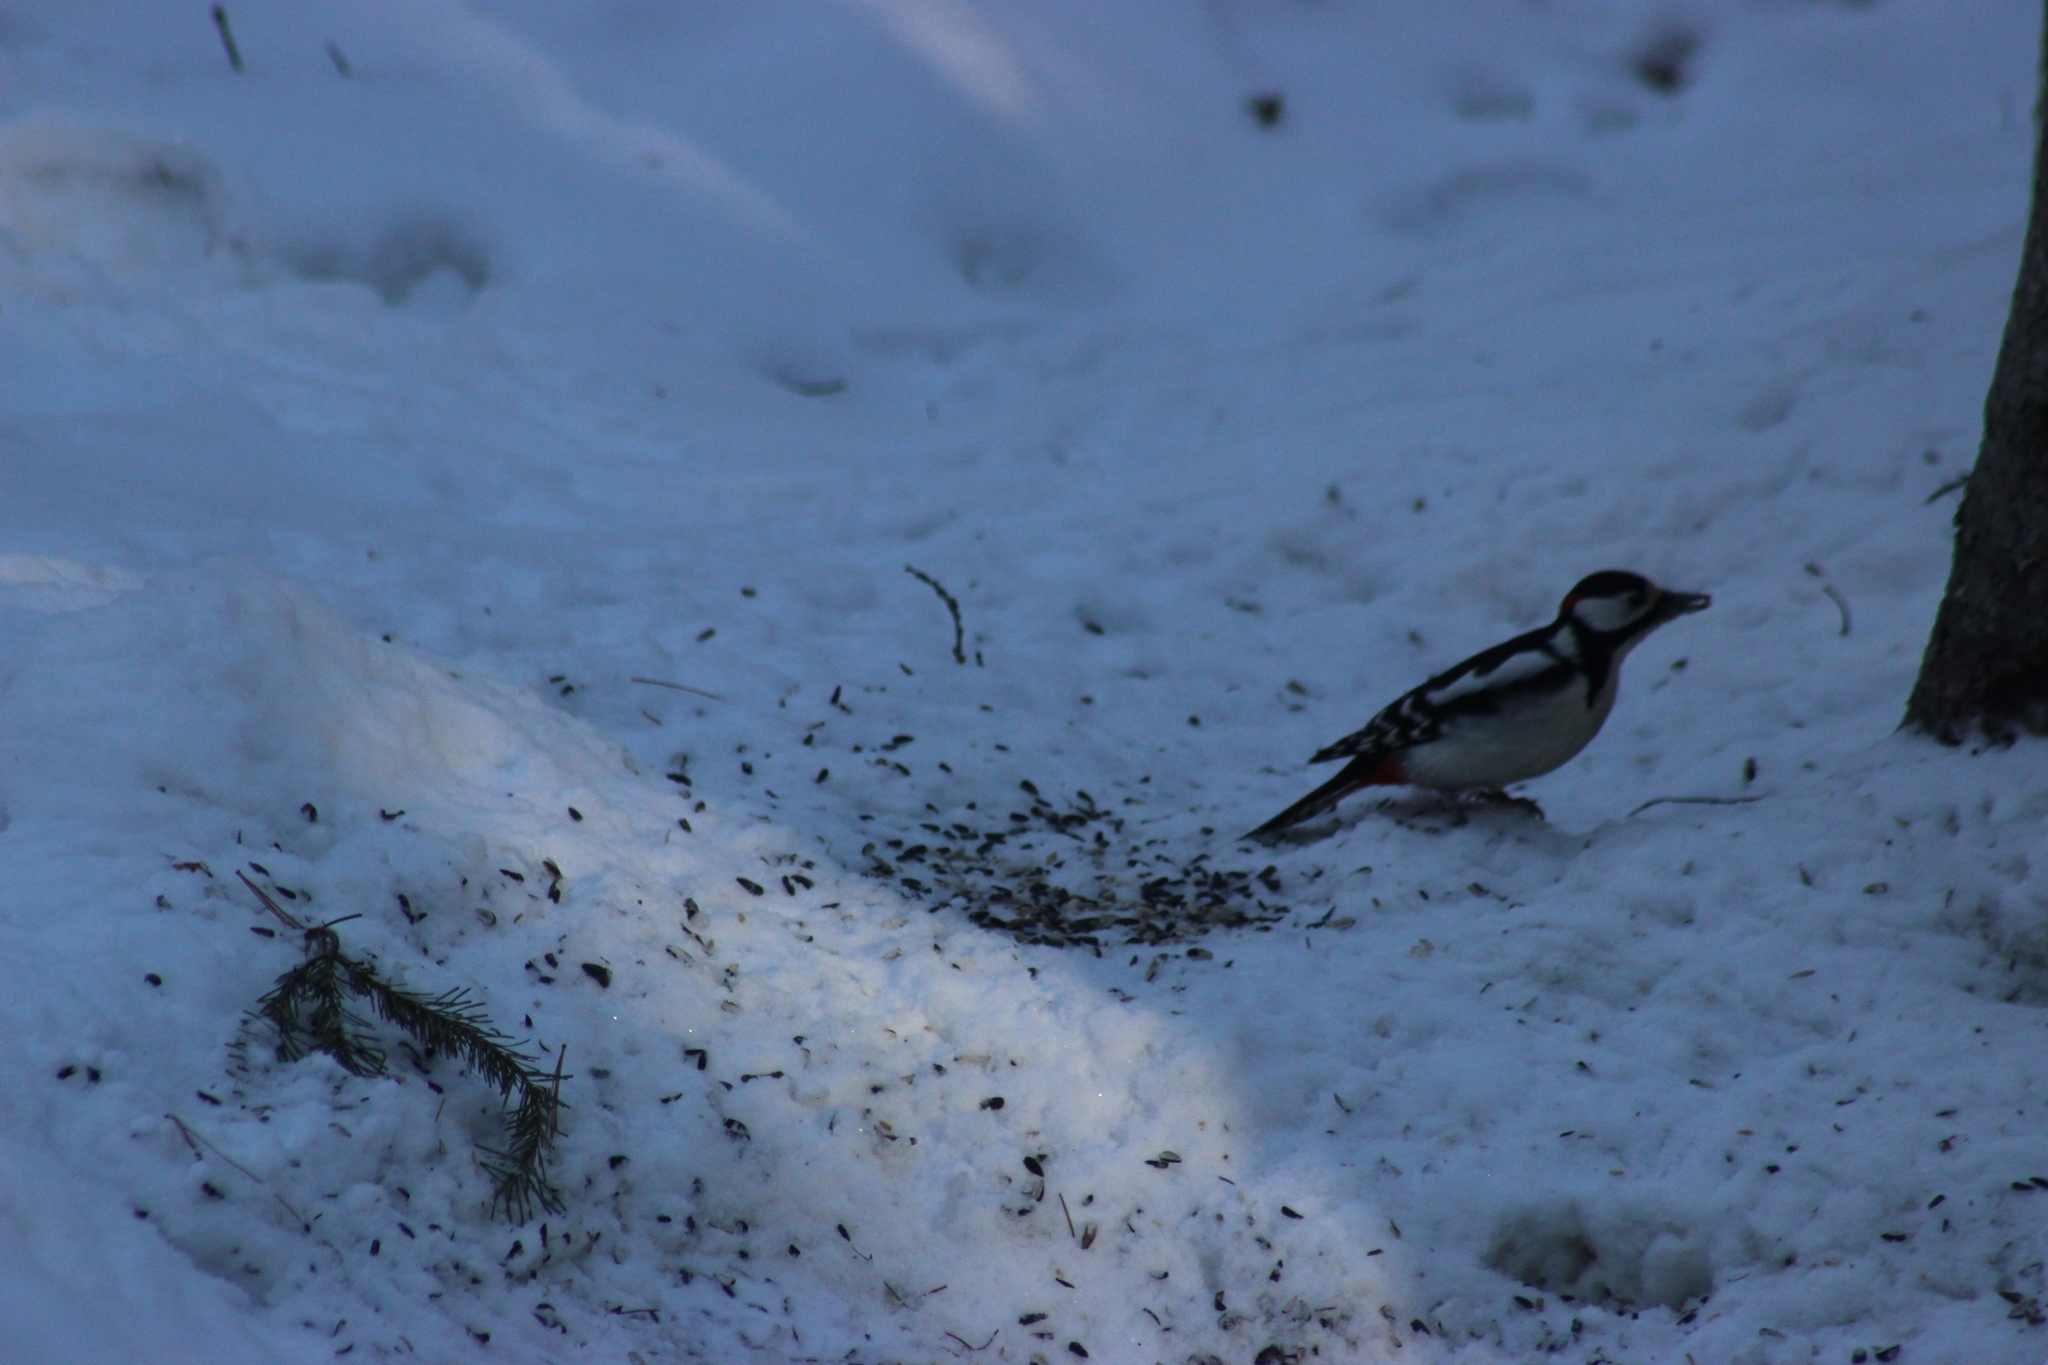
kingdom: Animalia
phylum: Chordata
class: Aves
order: Piciformes
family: Picidae
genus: Dendrocopos
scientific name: Dendrocopos major
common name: Great spotted woodpecker
